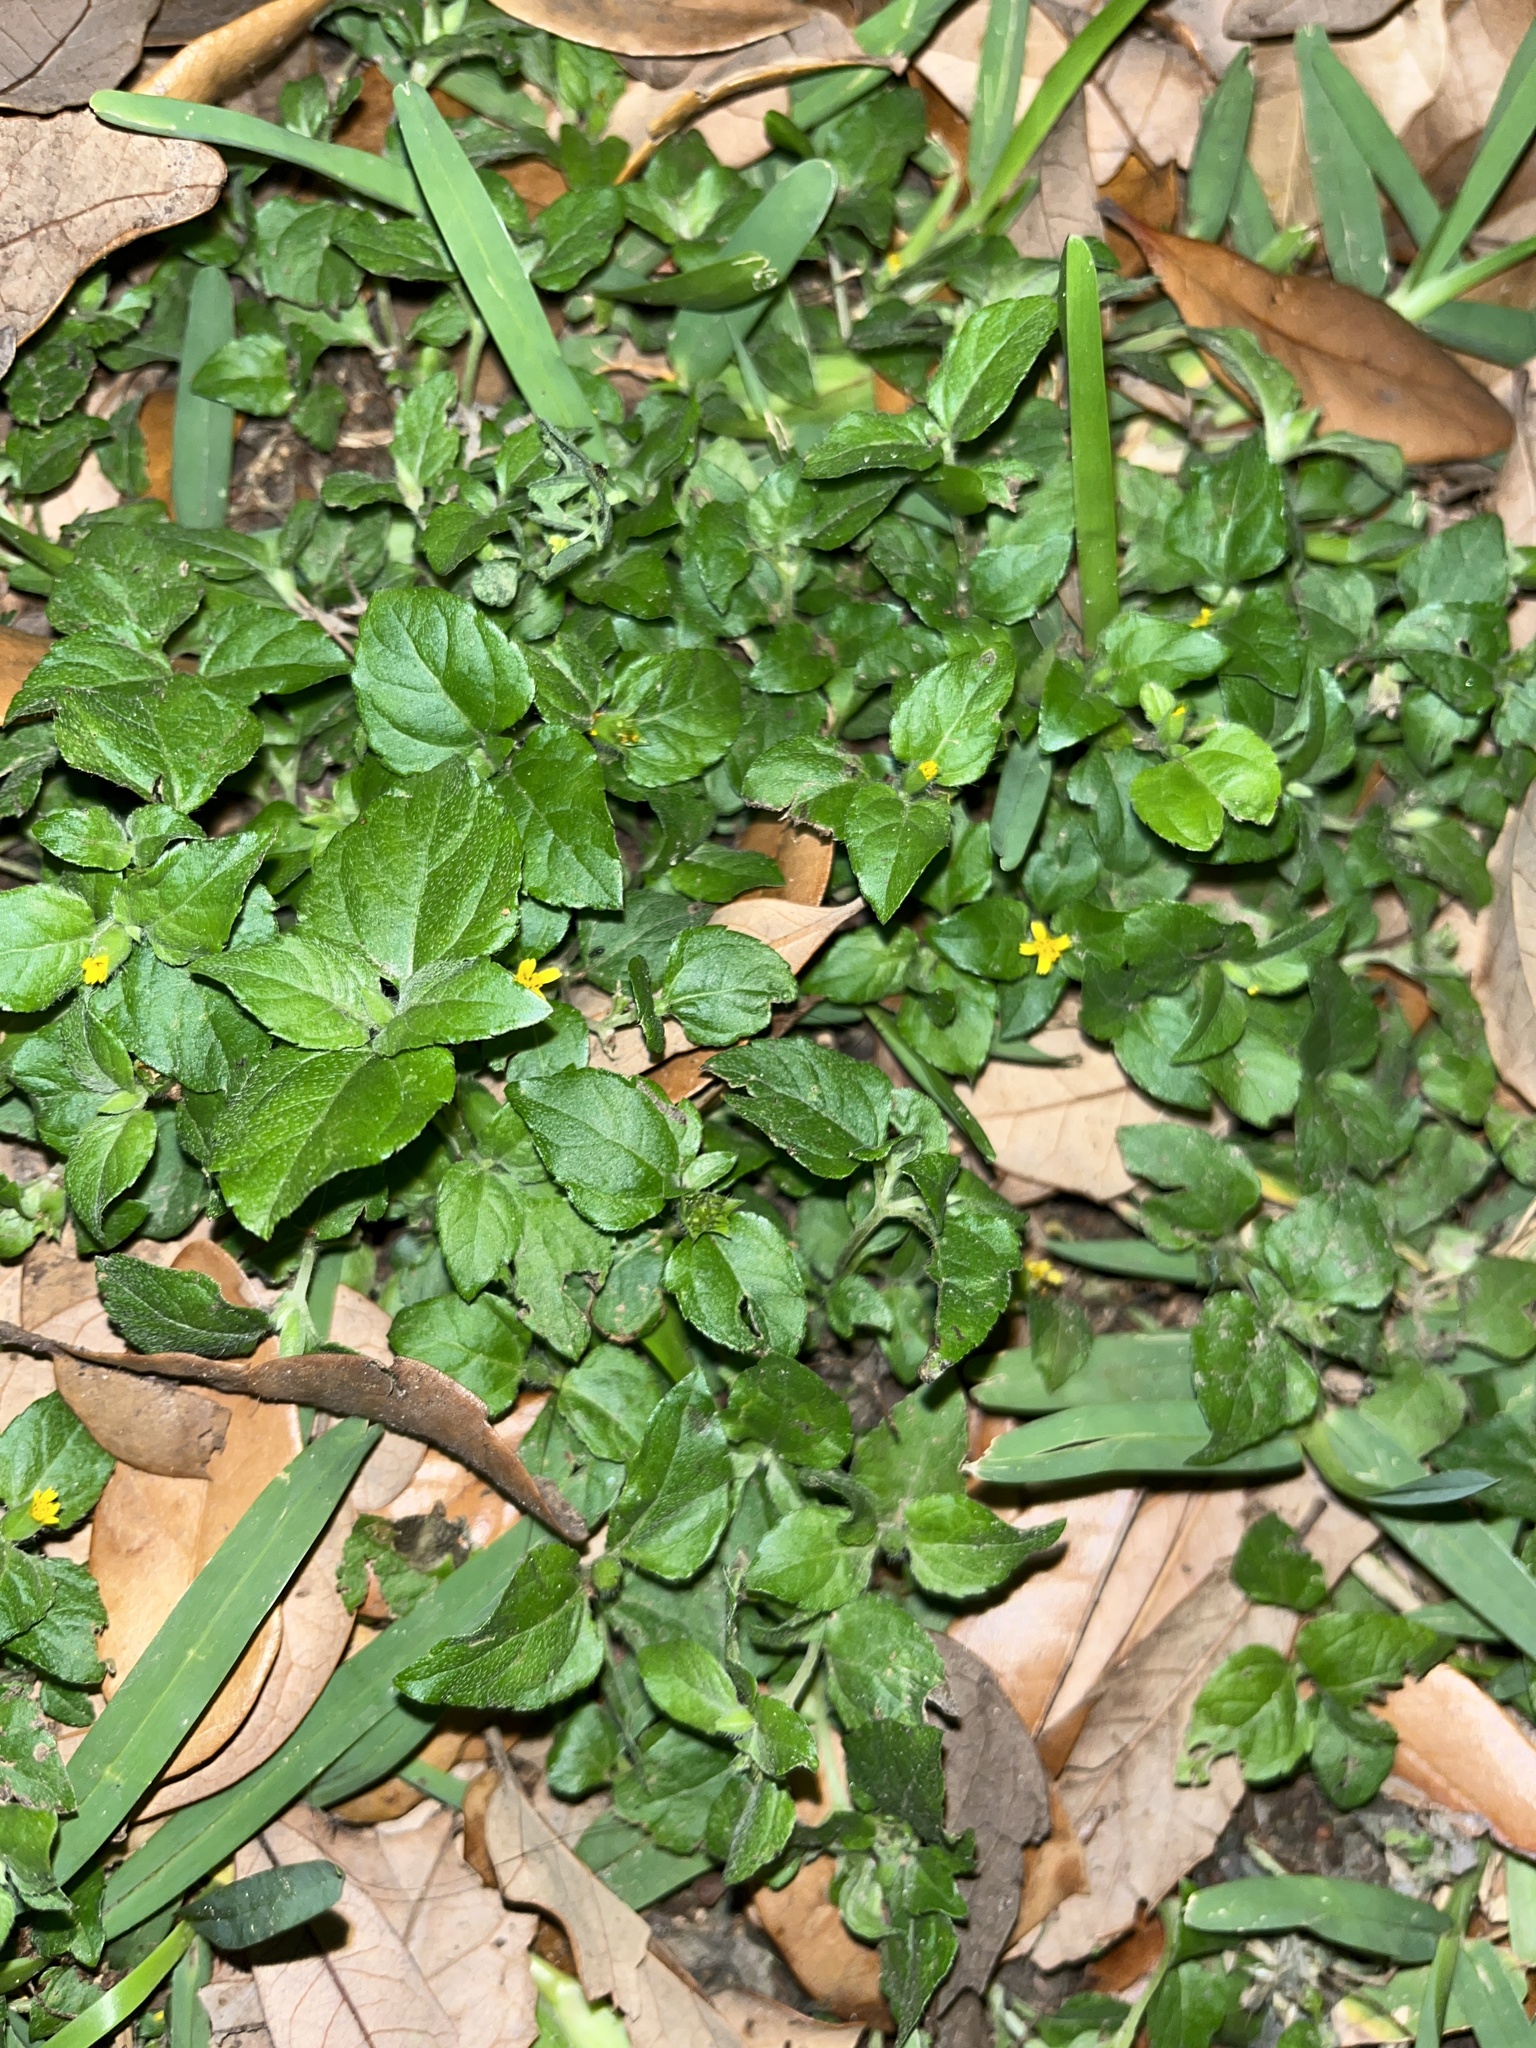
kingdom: Plantae
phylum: Tracheophyta
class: Magnoliopsida
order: Asterales
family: Asteraceae
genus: Calyptocarpus
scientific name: Calyptocarpus vialis
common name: Straggler daisy
